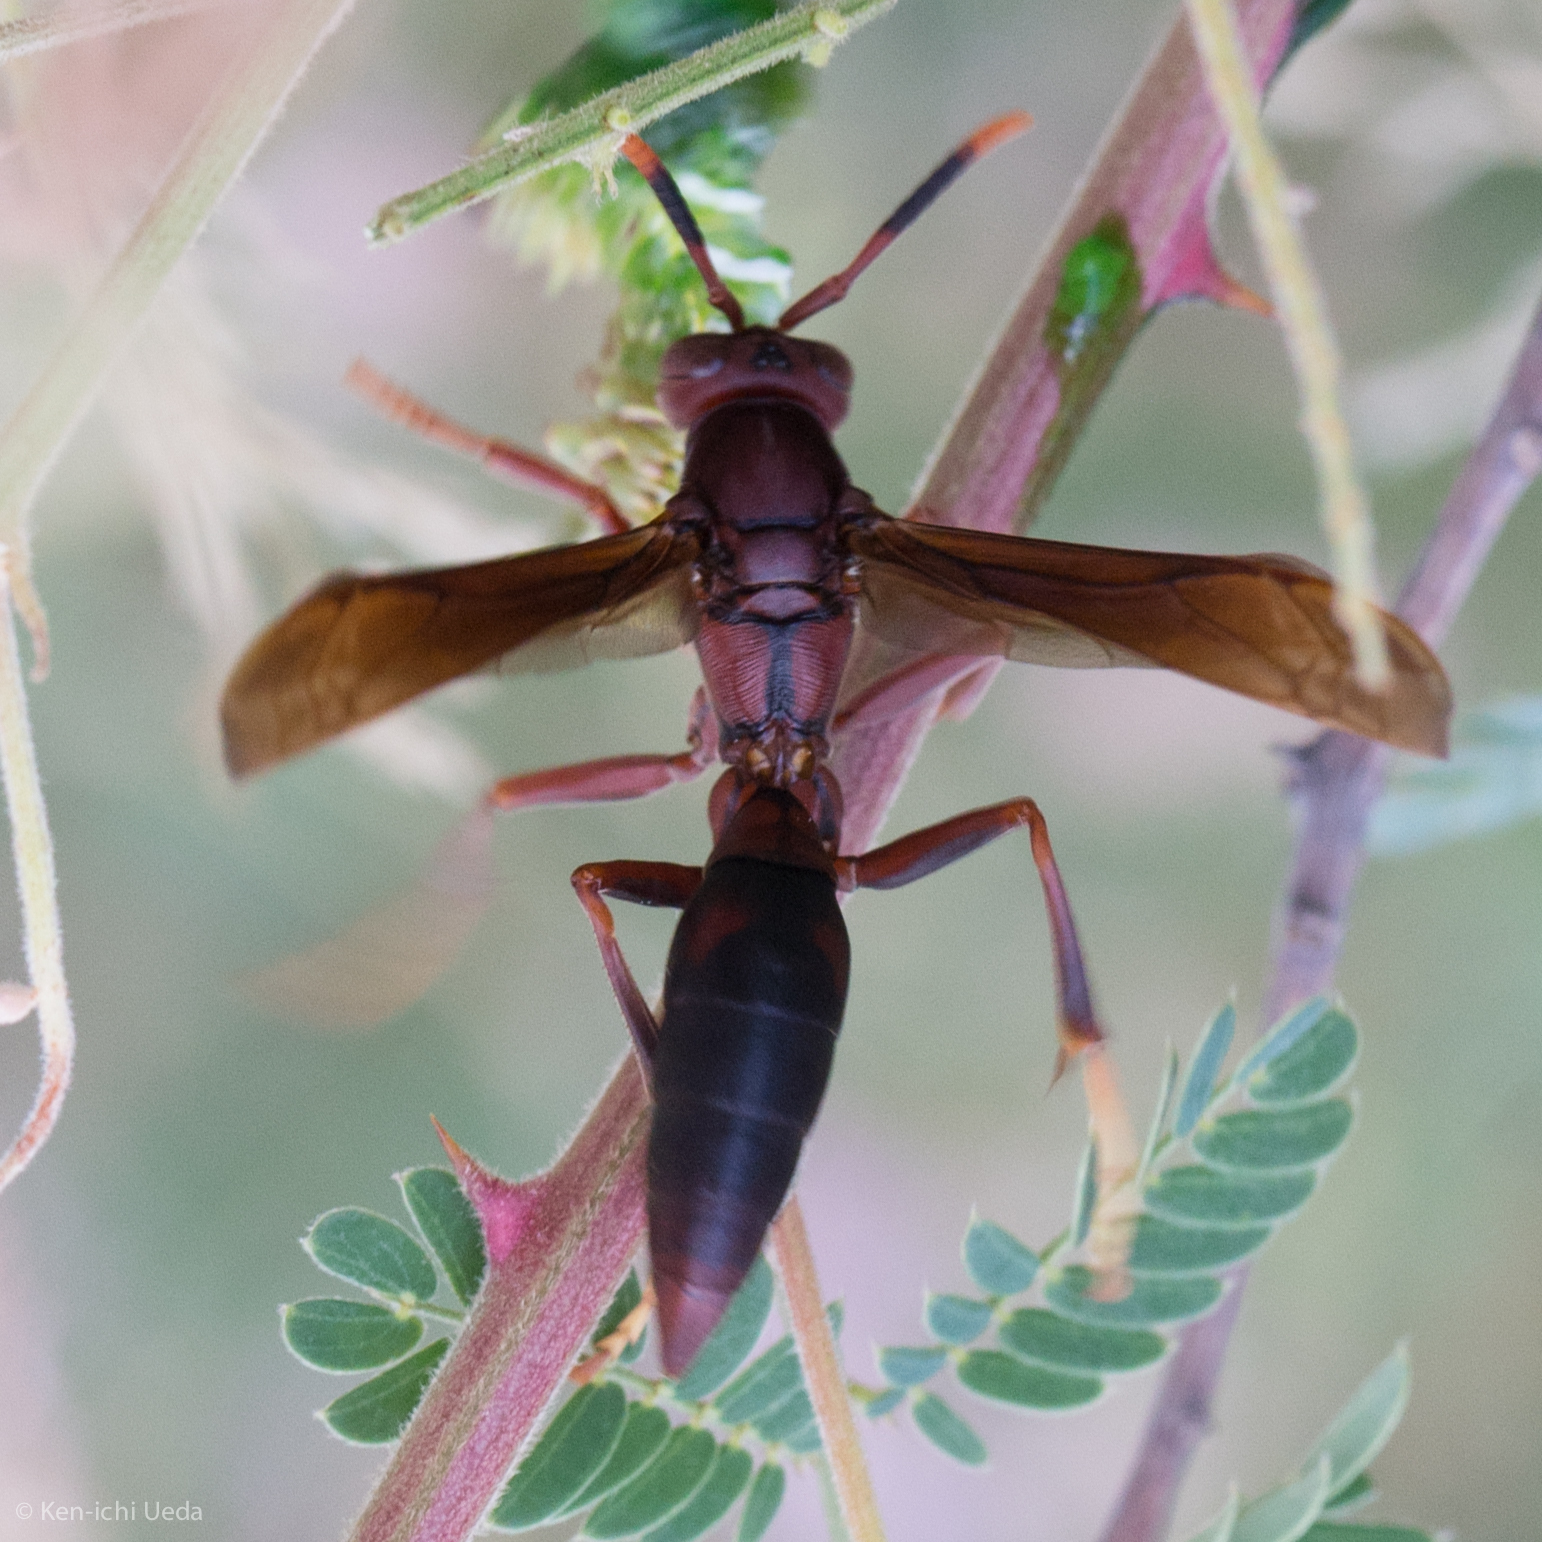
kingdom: Animalia
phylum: Arthropoda
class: Insecta
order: Hymenoptera
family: Eumenidae
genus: Polistes
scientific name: Polistes canadensis
